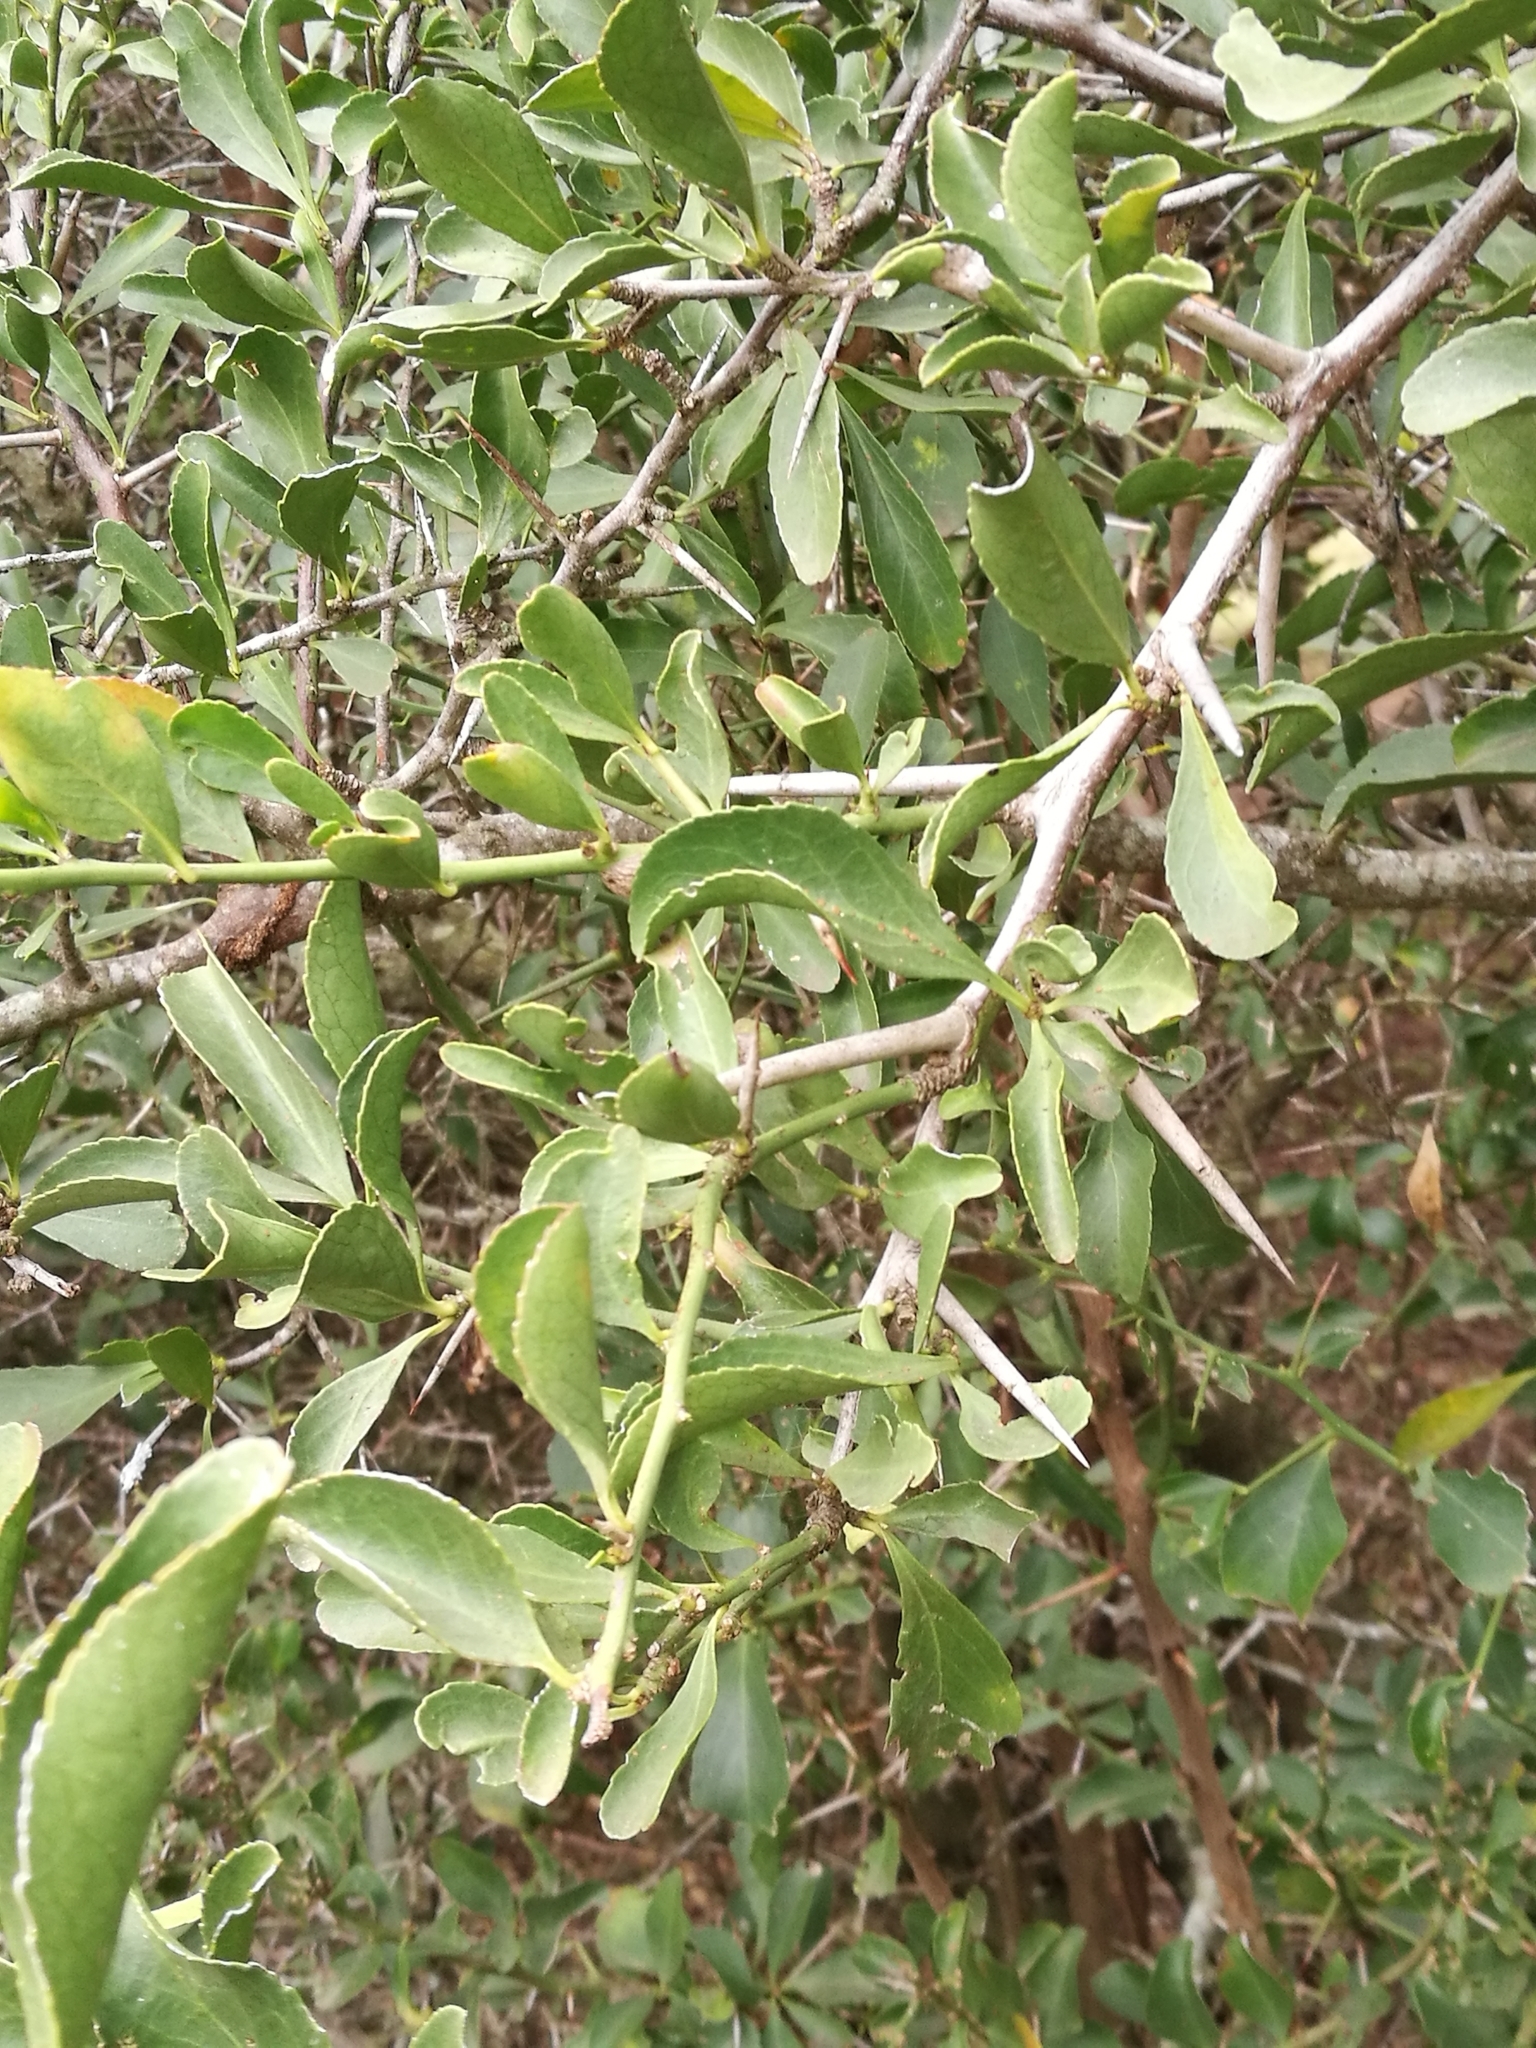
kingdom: Plantae
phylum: Tracheophyta
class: Magnoliopsida
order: Celastrales
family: Celastraceae
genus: Gymnosporia
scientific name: Gymnosporia buxifolia
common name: Common spike-thorn
